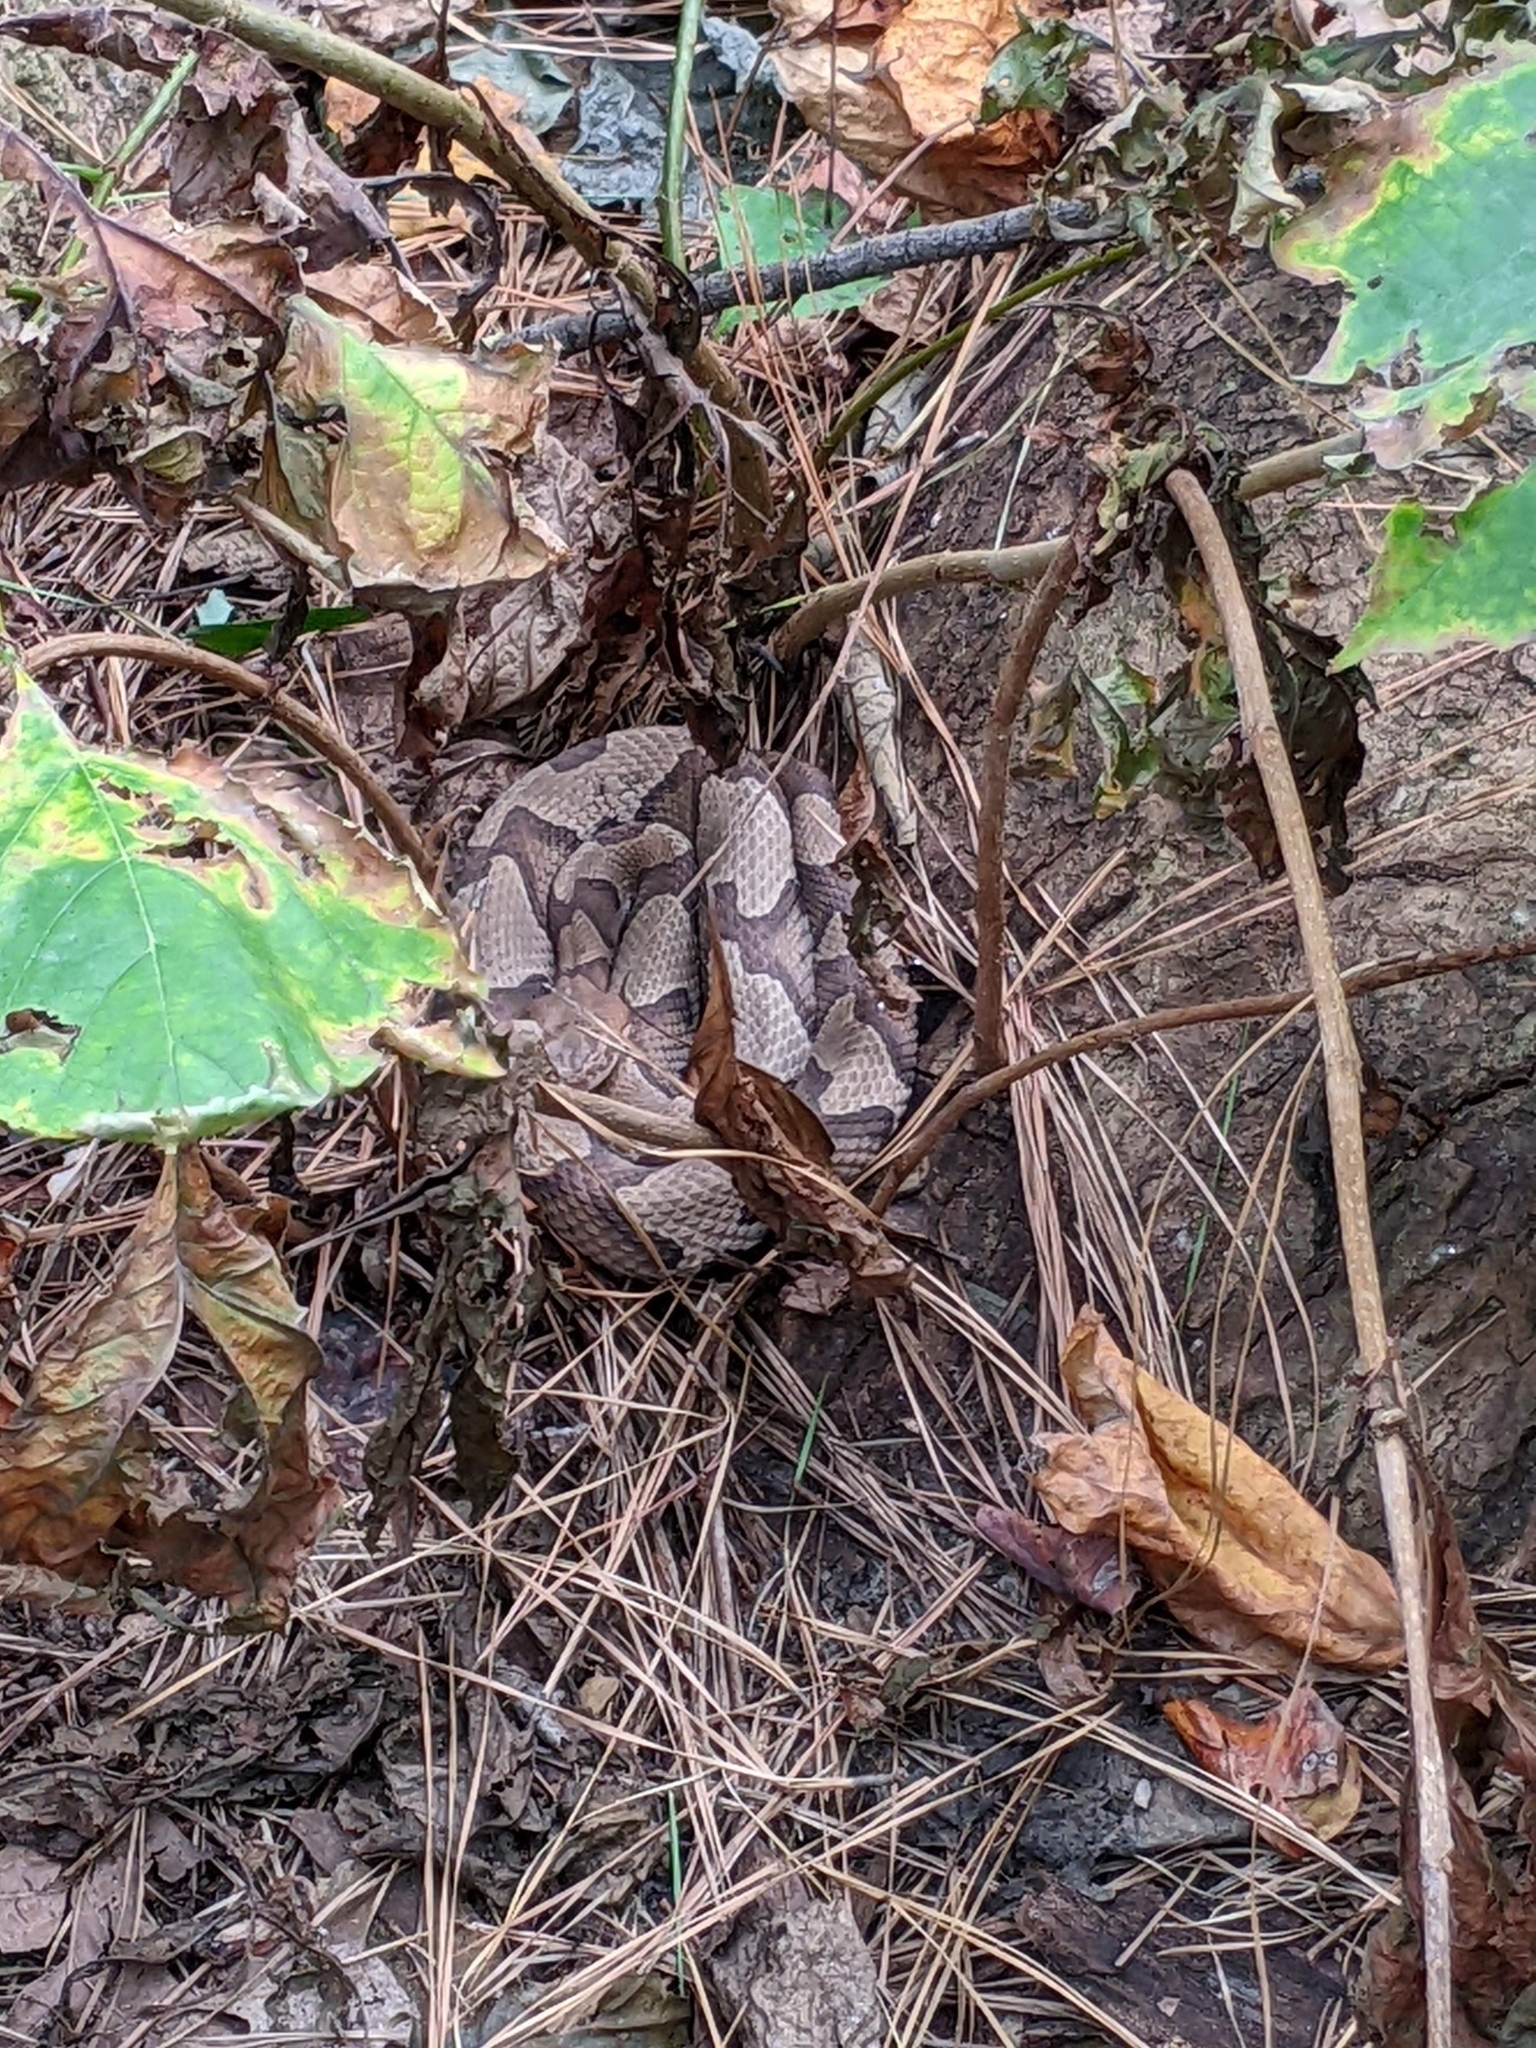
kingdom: Animalia
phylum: Chordata
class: Squamata
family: Viperidae
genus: Agkistrodon
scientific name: Agkistrodon contortrix
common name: Northern copperhead
